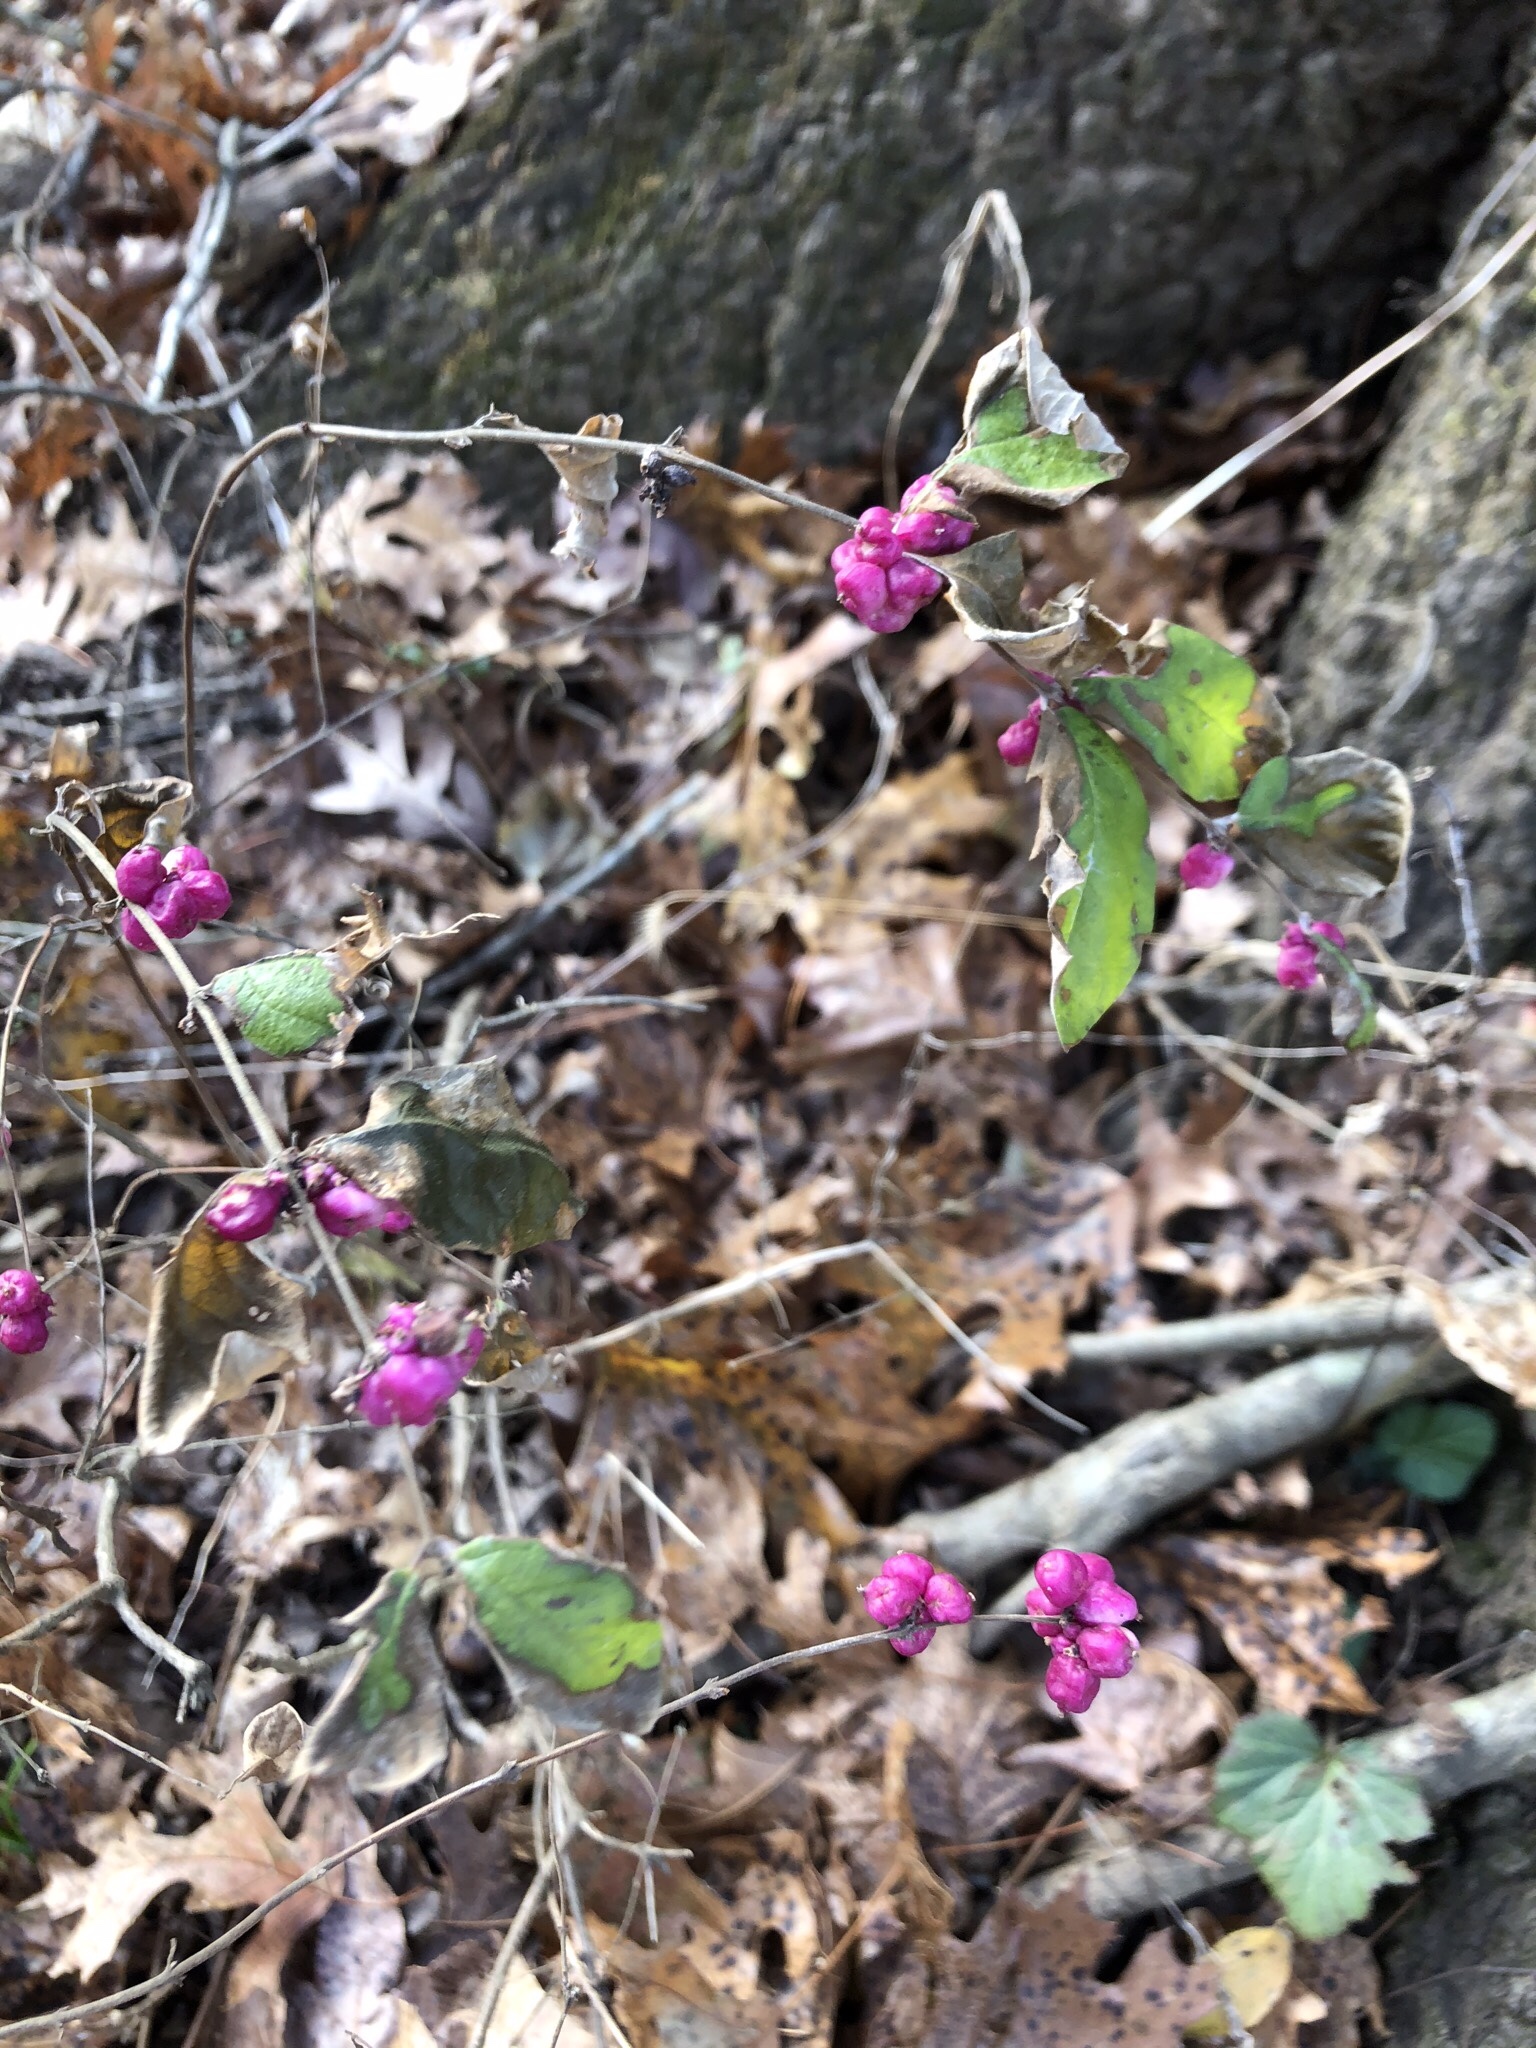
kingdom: Plantae
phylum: Tracheophyta
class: Magnoliopsida
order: Dipsacales
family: Caprifoliaceae
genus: Symphoricarpos
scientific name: Symphoricarpos orbiculatus
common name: Coralberry
